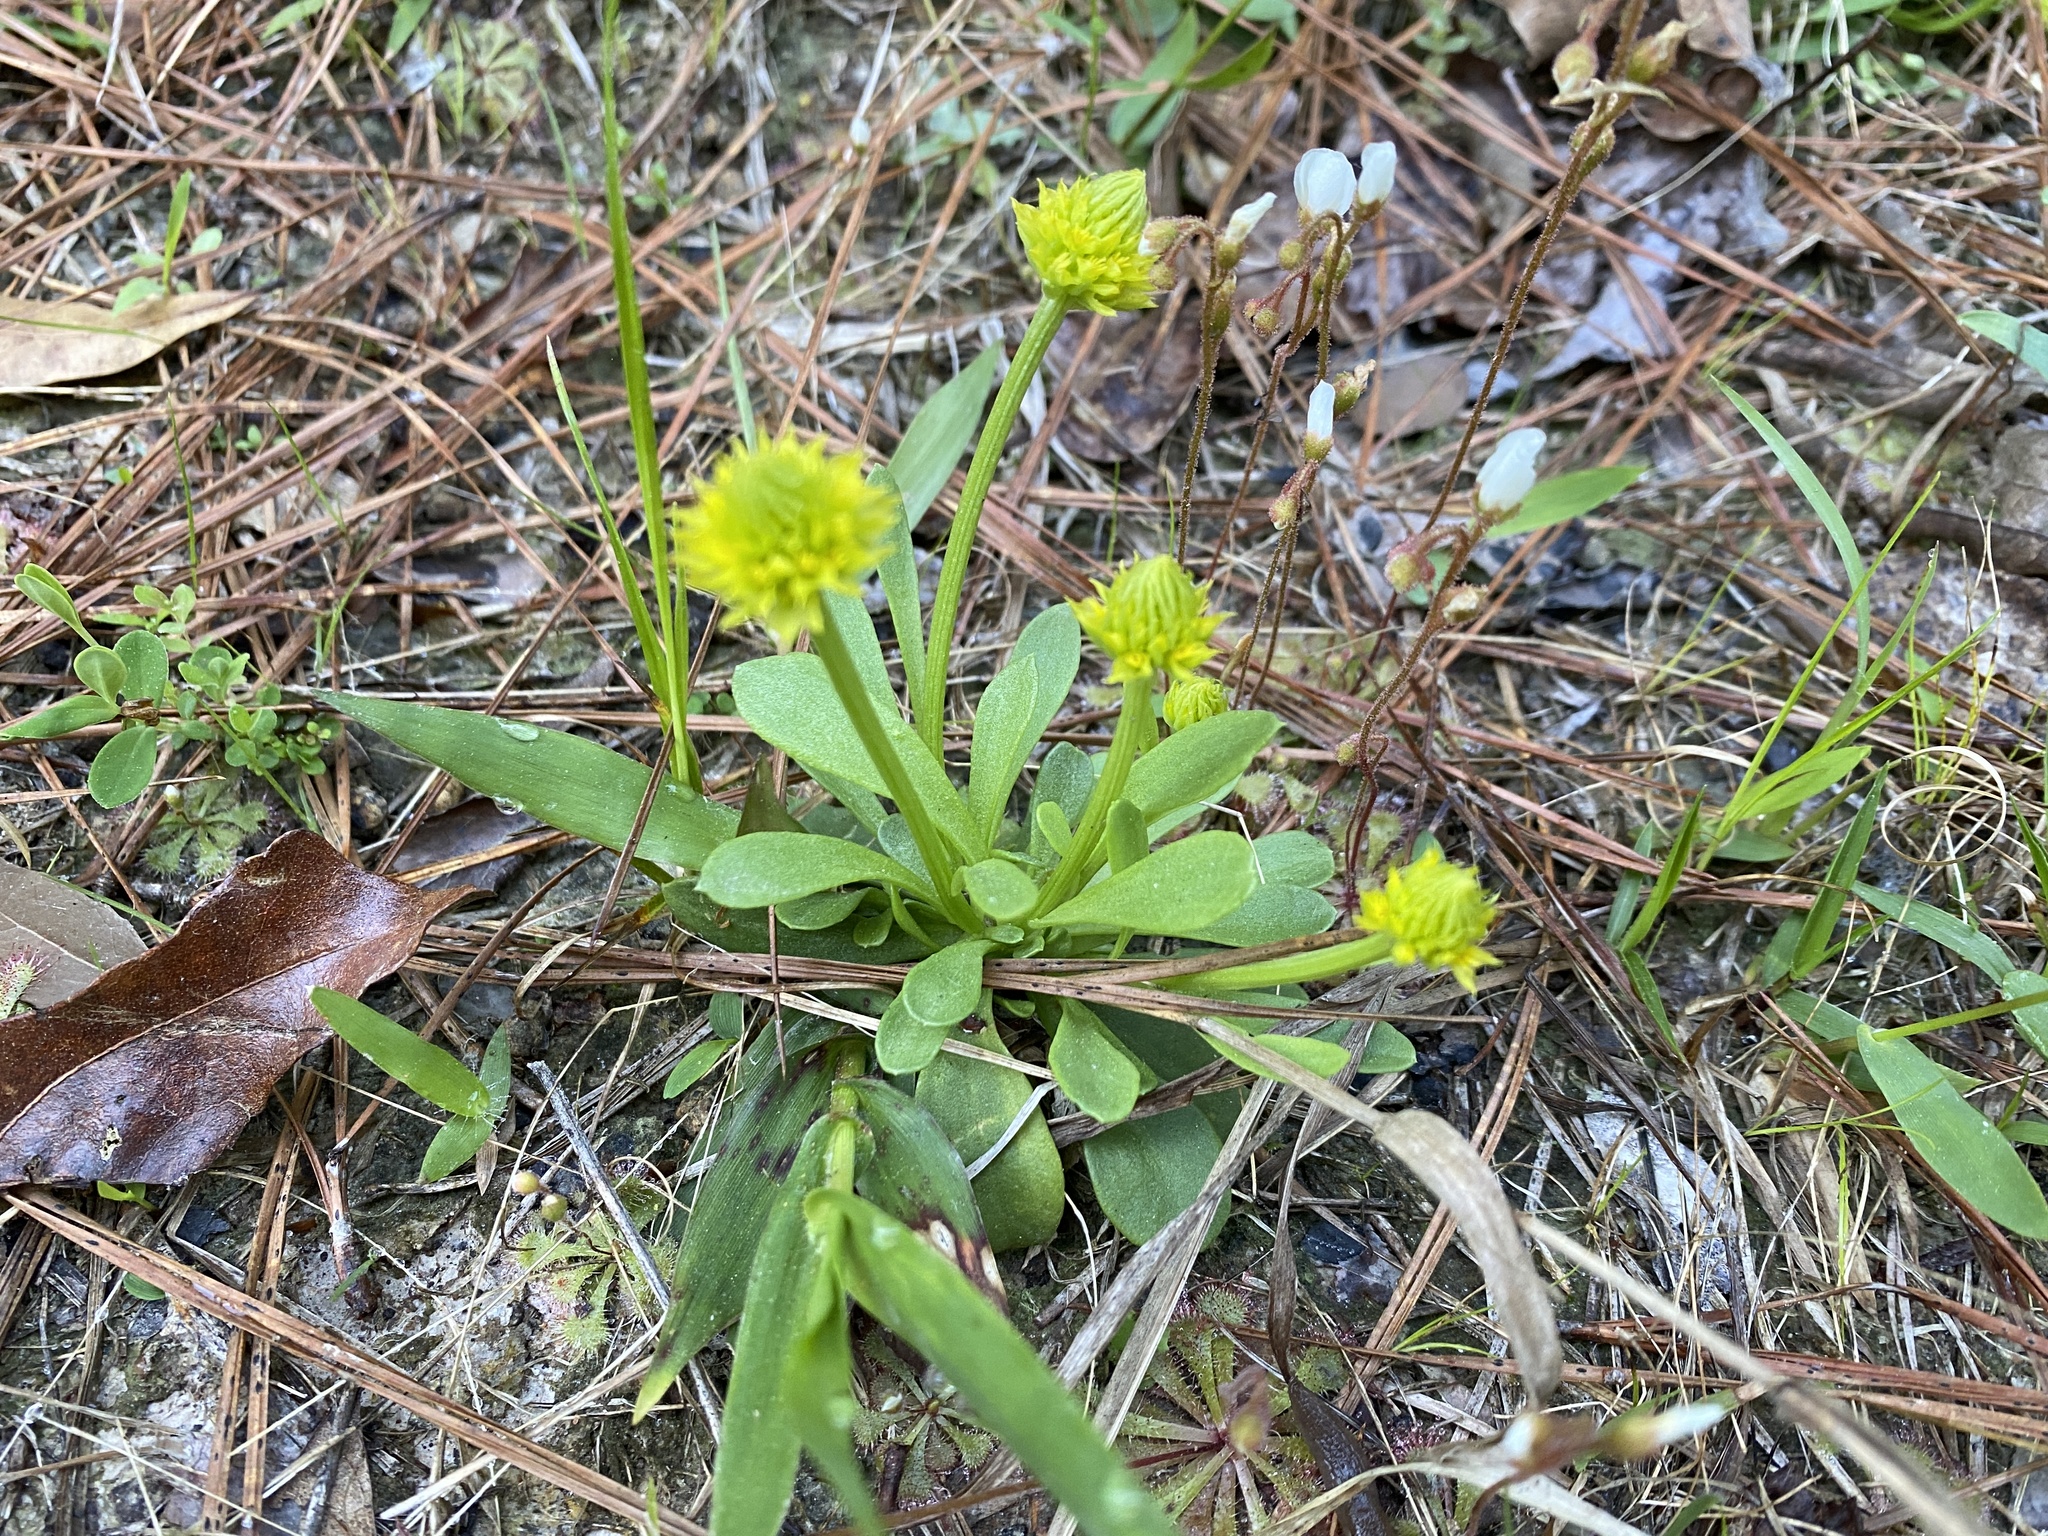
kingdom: Plantae
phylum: Tracheophyta
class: Magnoliopsida
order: Fabales
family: Polygalaceae
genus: Polygala
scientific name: Polygala nana
